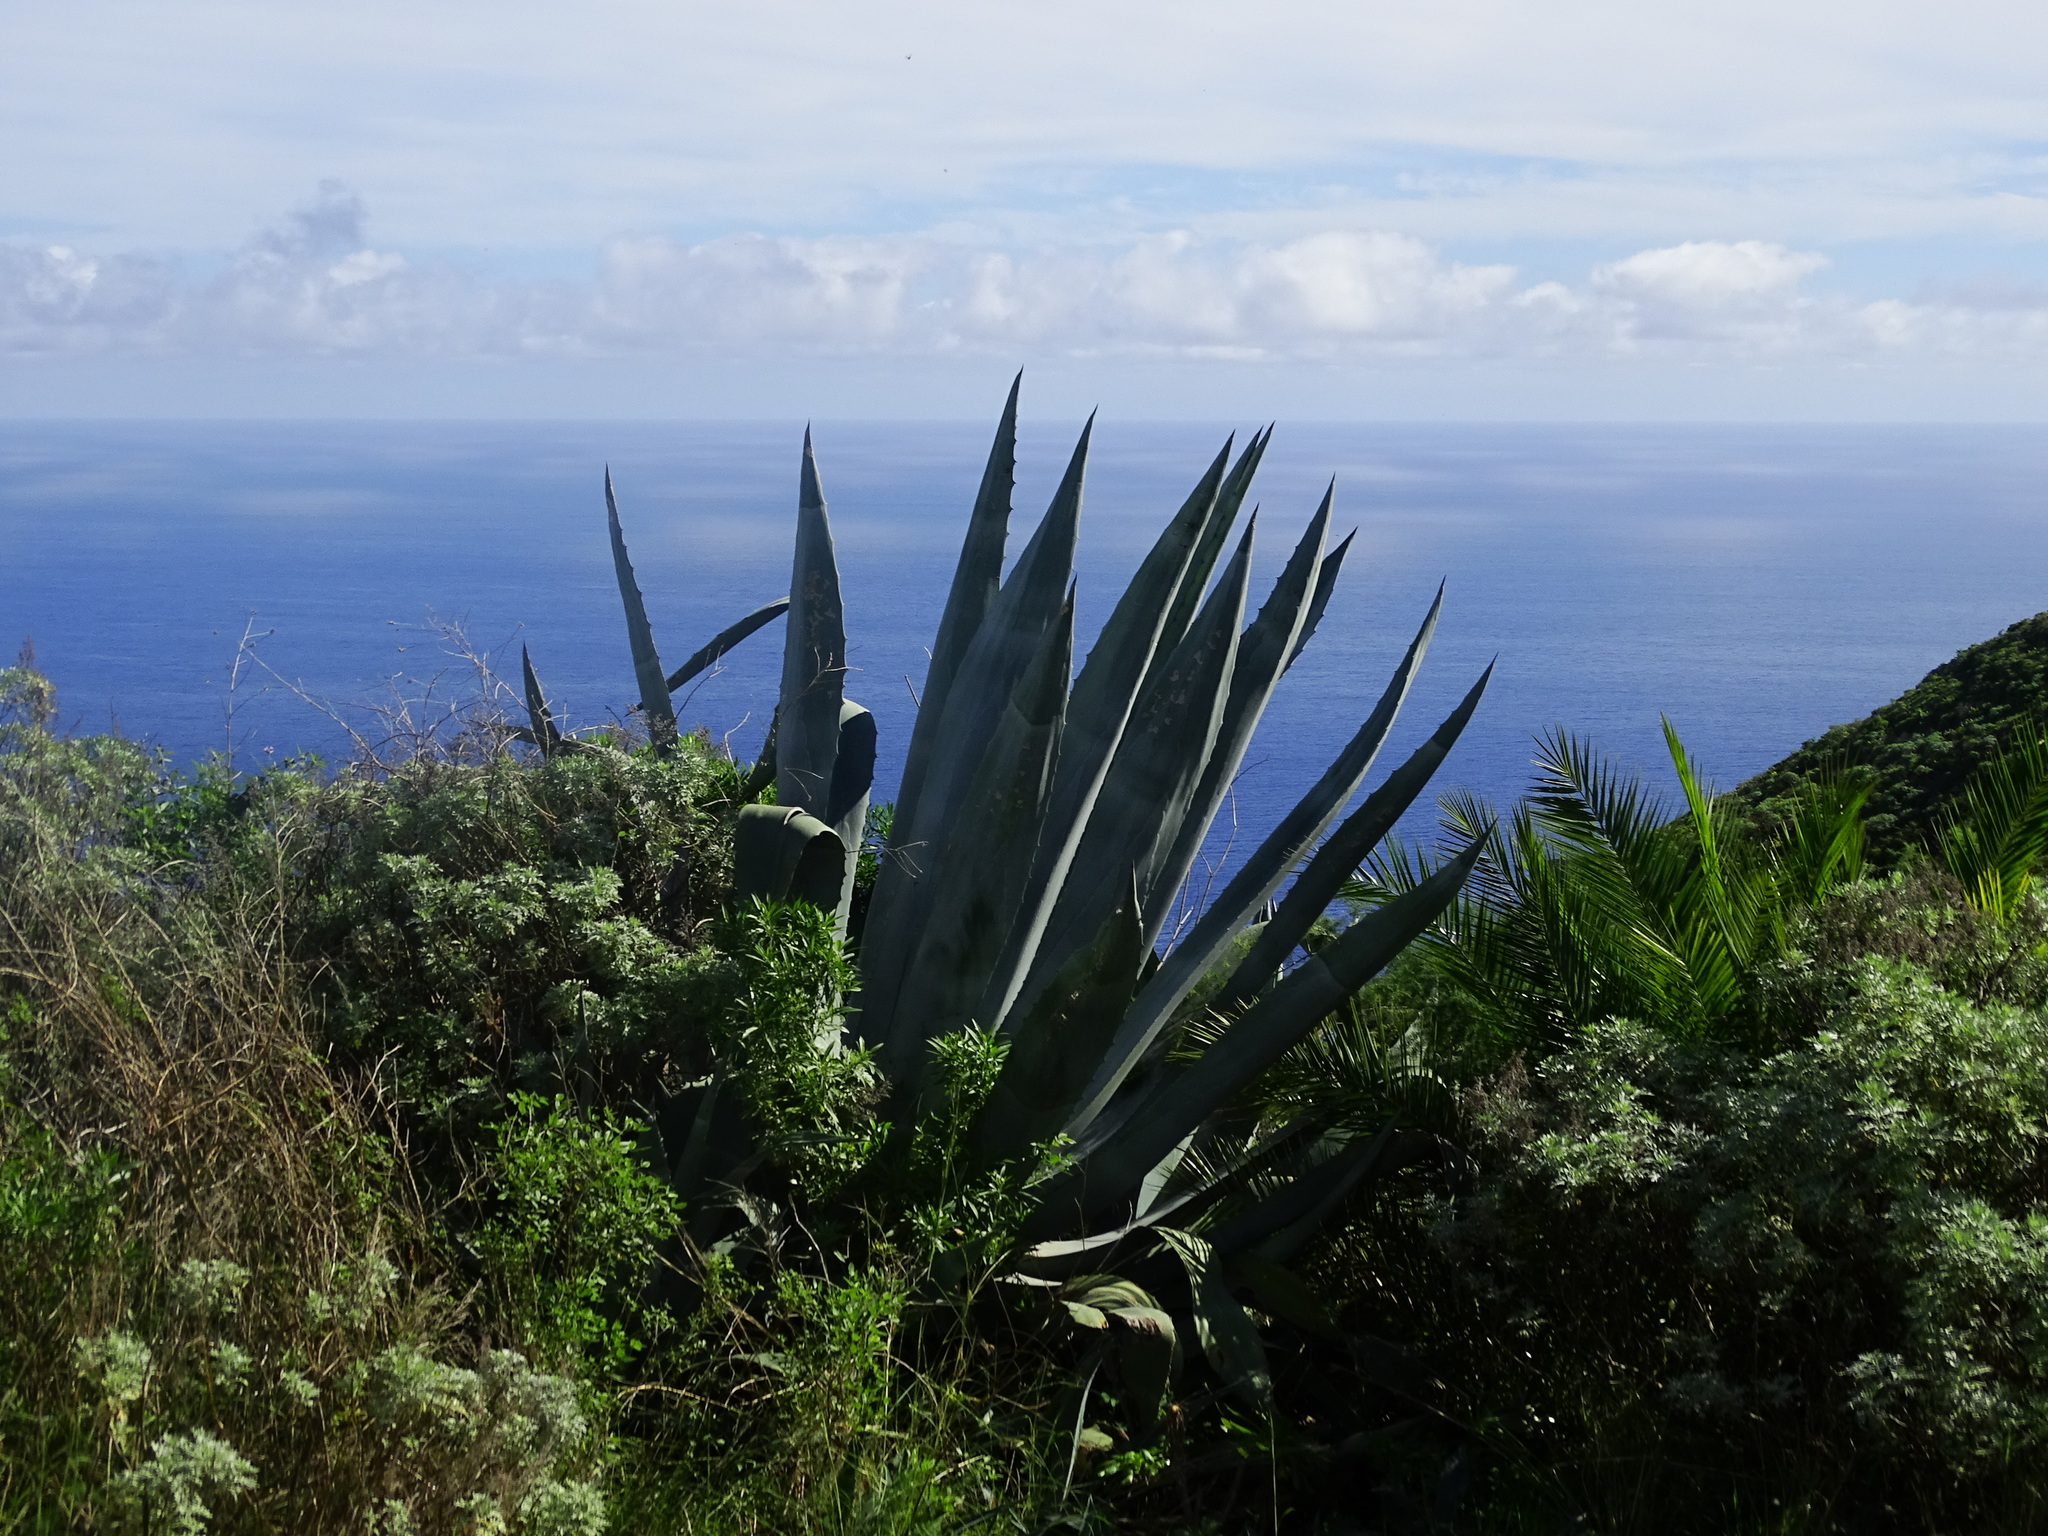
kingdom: Plantae
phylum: Tracheophyta
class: Liliopsida
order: Asparagales
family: Asparagaceae
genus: Agave
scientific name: Agave americana
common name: Centuryplant
